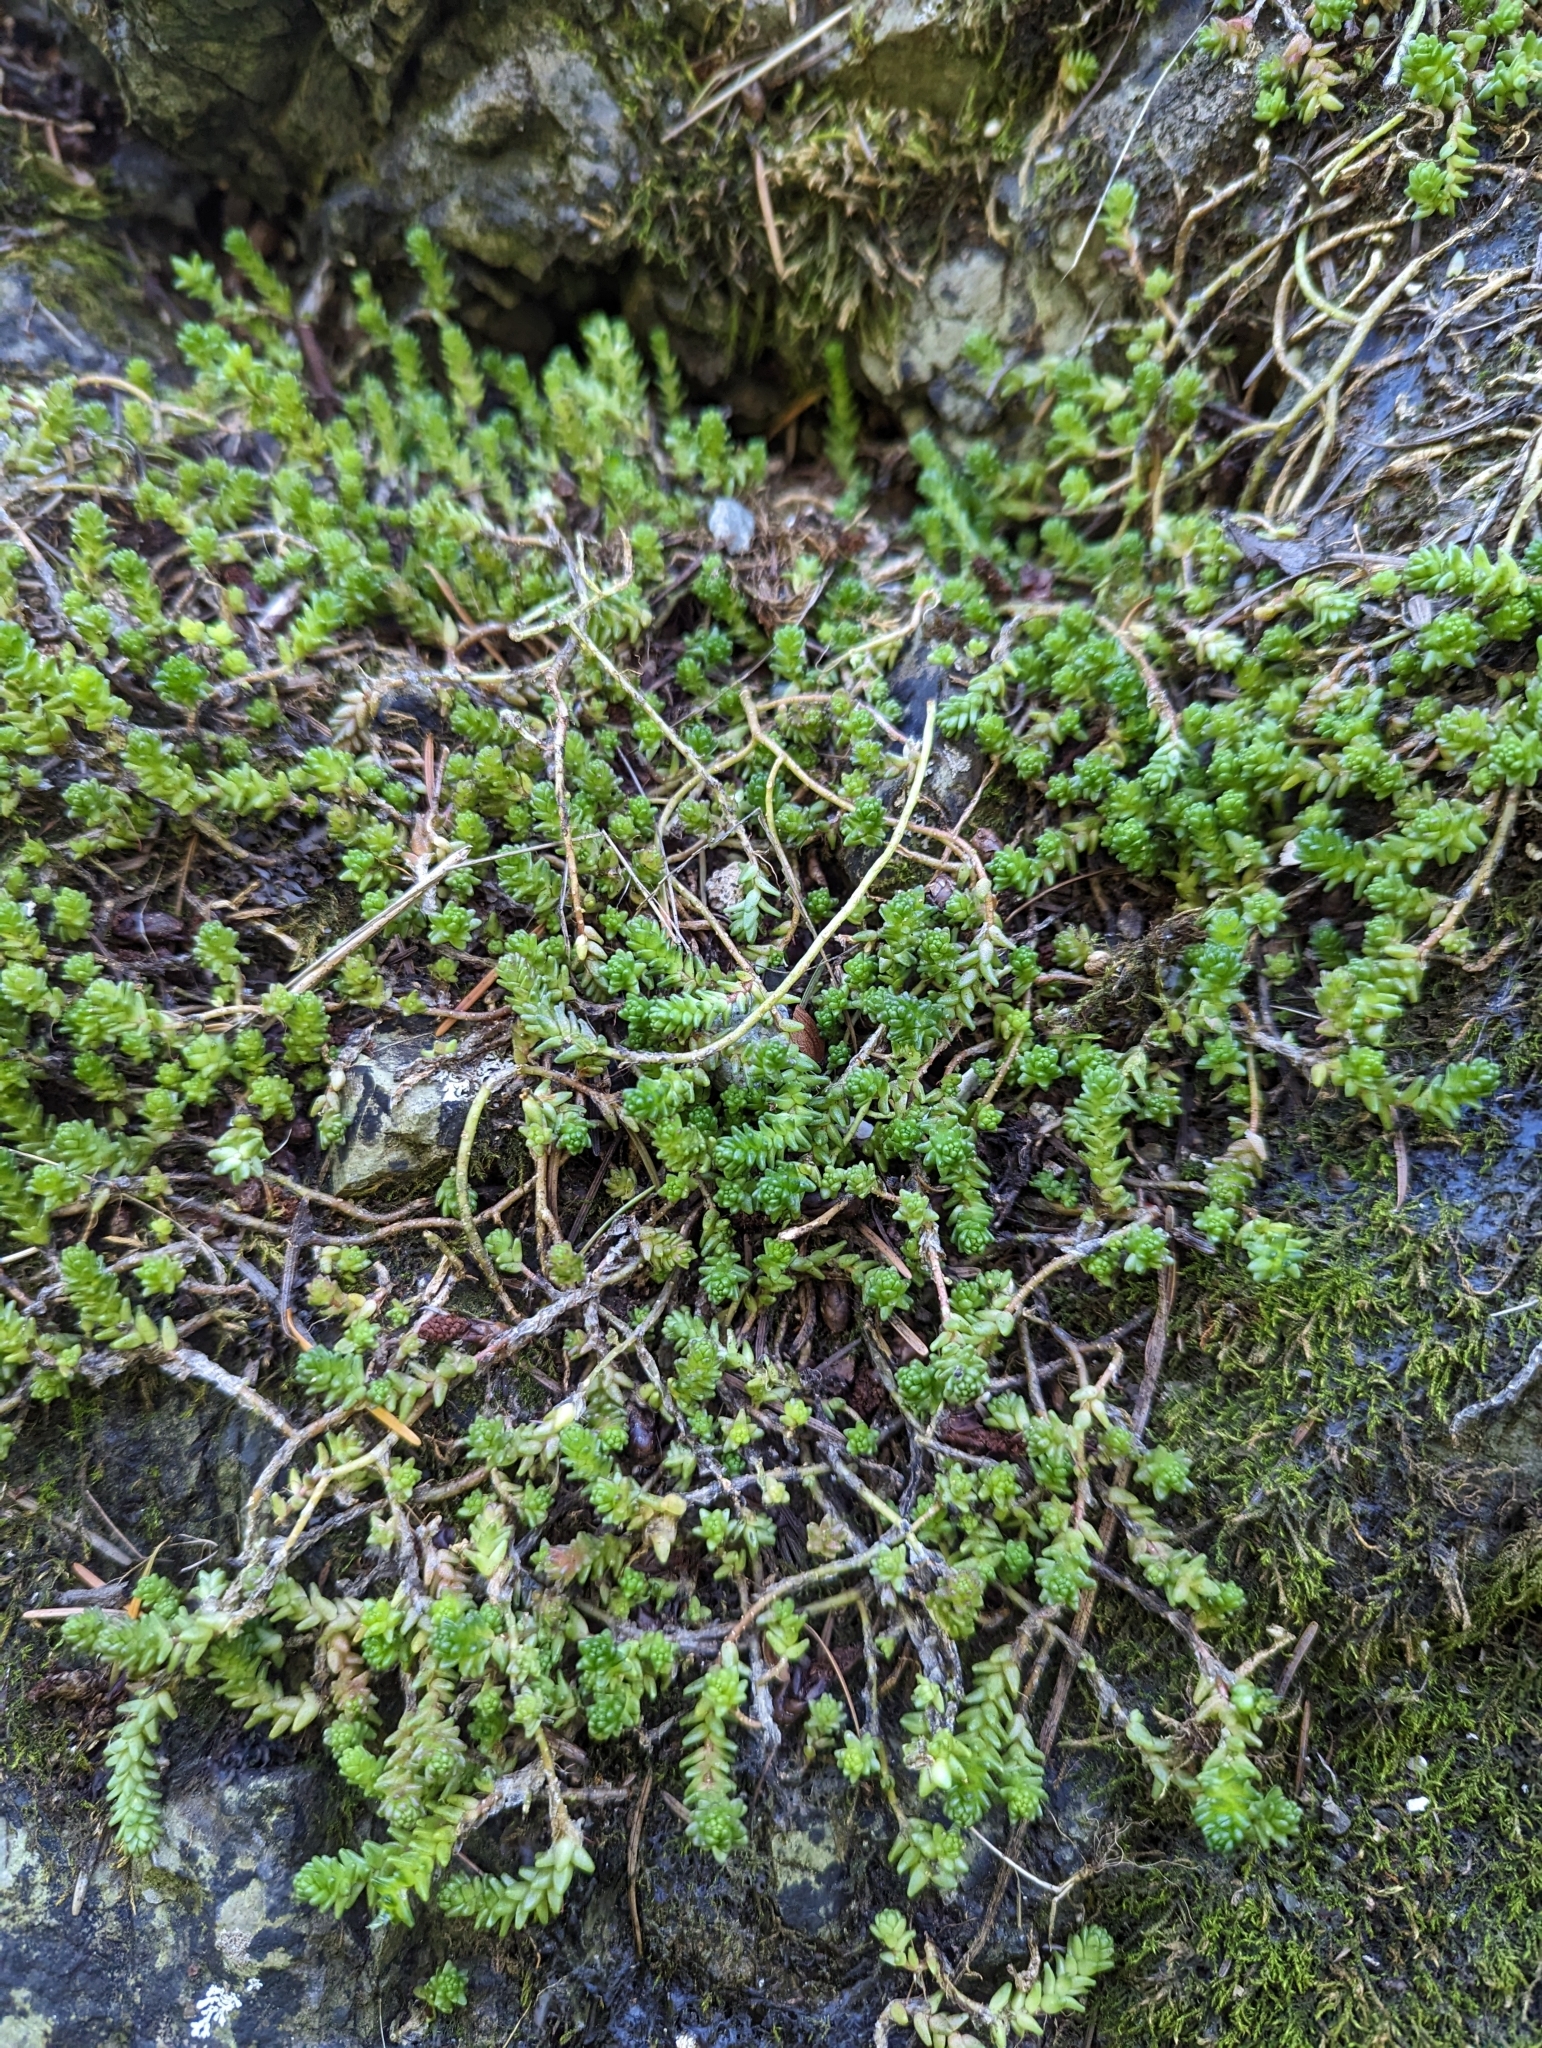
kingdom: Plantae
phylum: Tracheophyta
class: Magnoliopsida
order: Saxifragales
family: Crassulaceae
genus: Sedum
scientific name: Sedum acre
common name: Biting stonecrop
